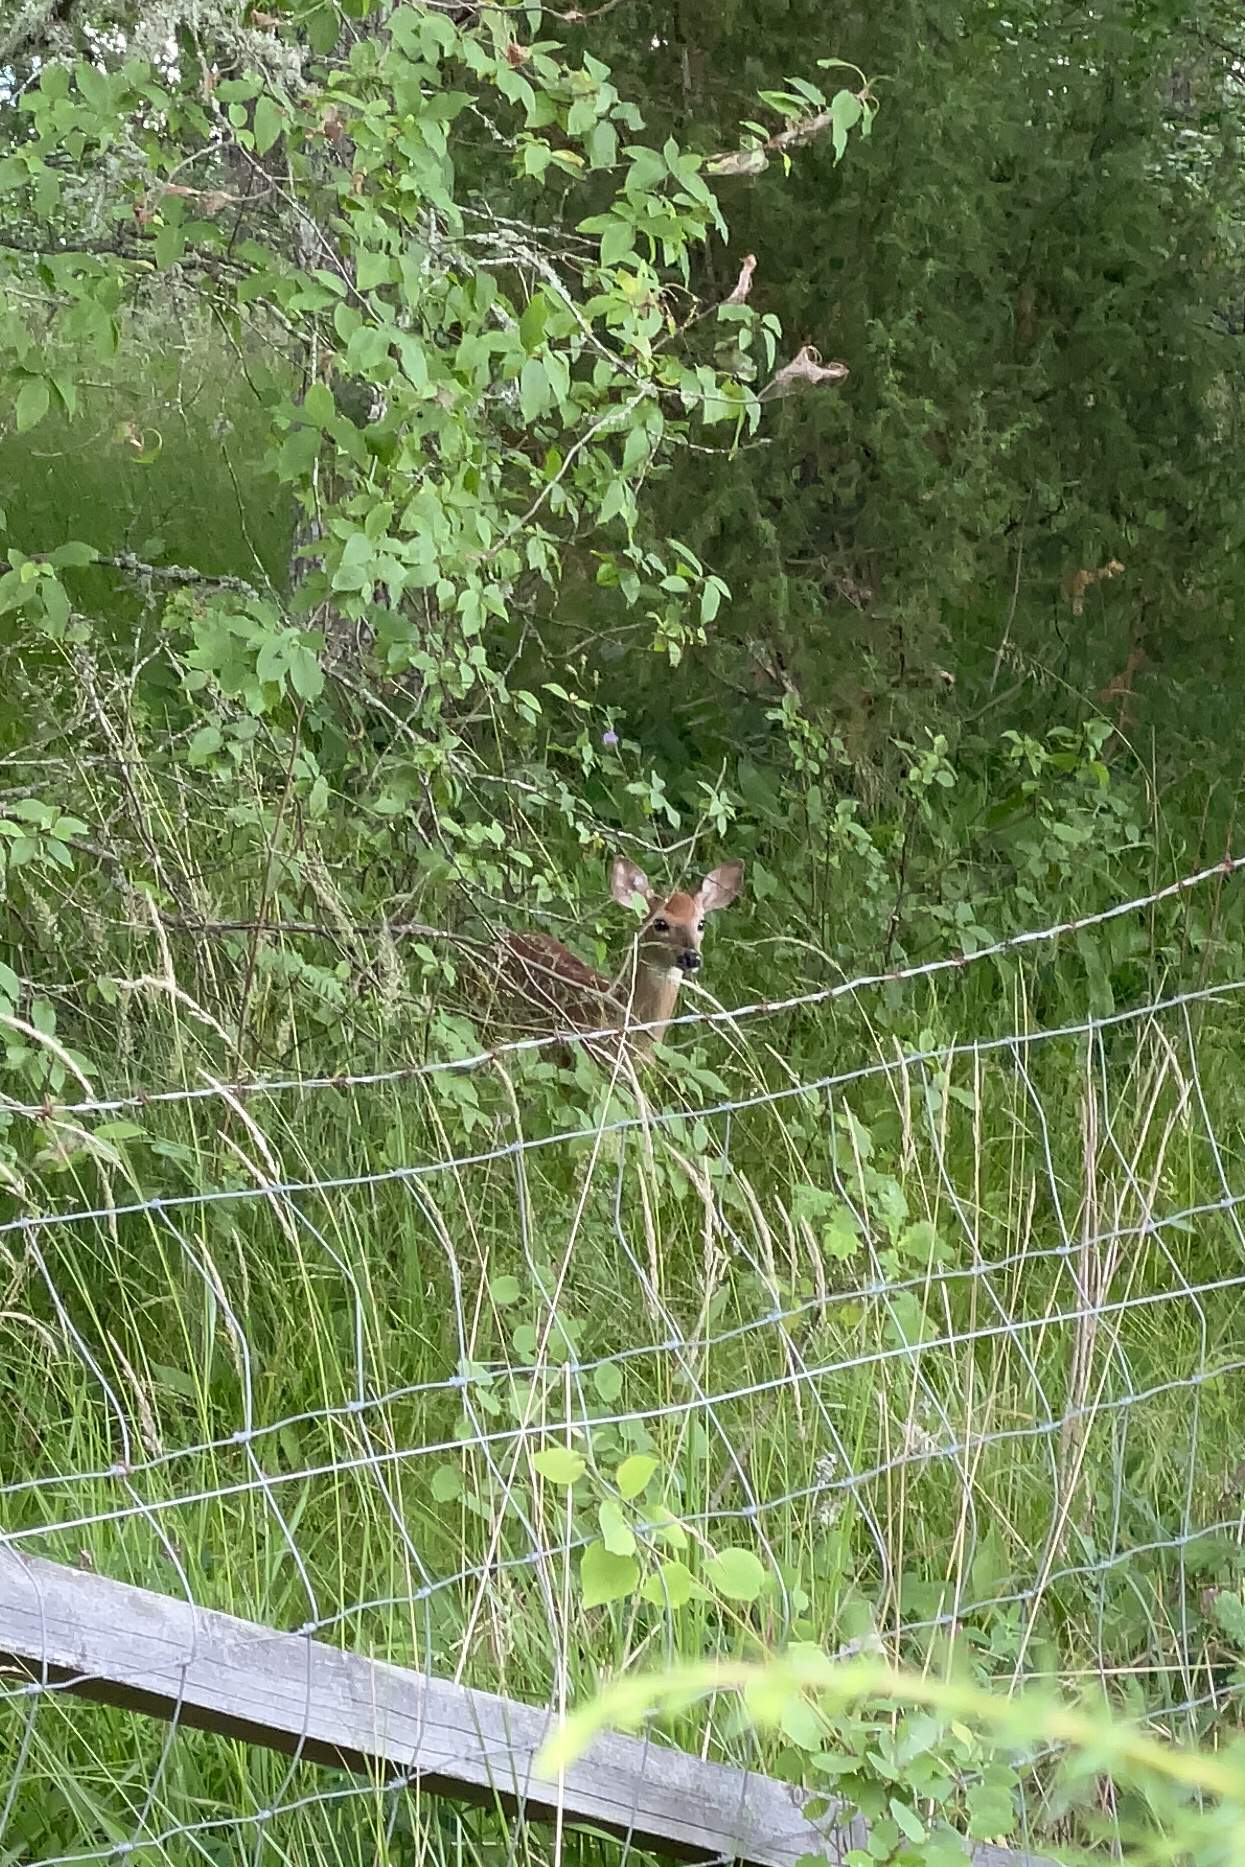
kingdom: Animalia
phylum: Chordata
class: Mammalia
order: Artiodactyla
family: Cervidae
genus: Odocoileus
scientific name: Odocoileus virginianus
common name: White-tailed deer
